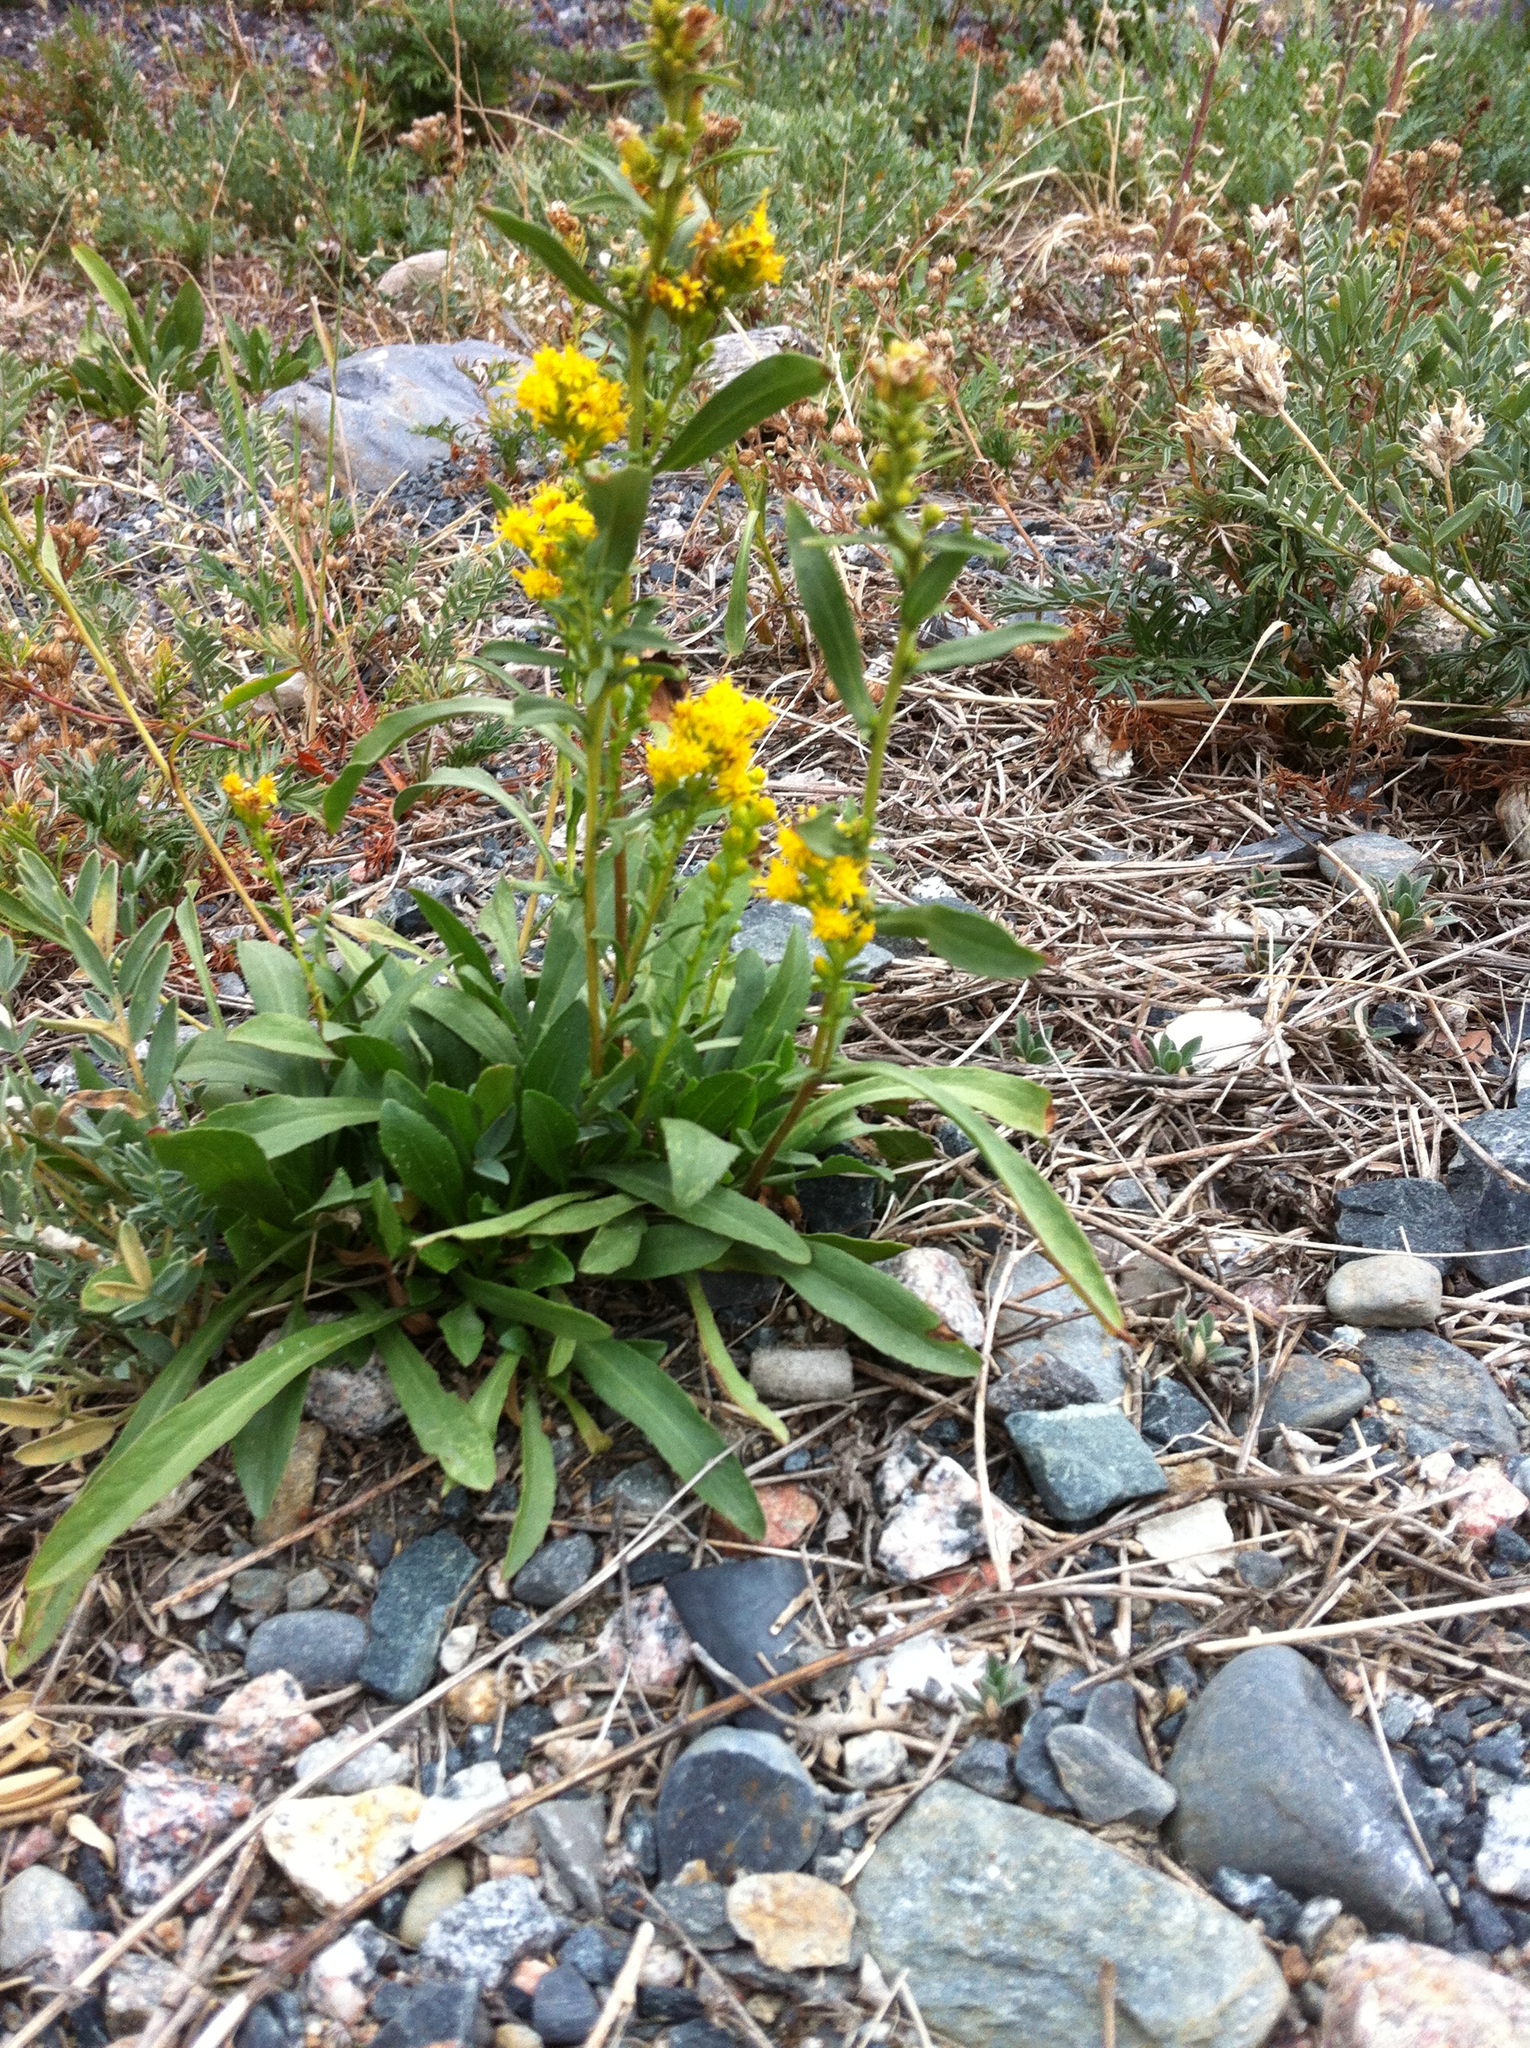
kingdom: Plantae
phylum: Tracheophyta
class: Magnoliopsida
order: Asterales
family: Asteraceae
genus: Solidago
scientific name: Solidago multiradiata
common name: Northern goldenrod
